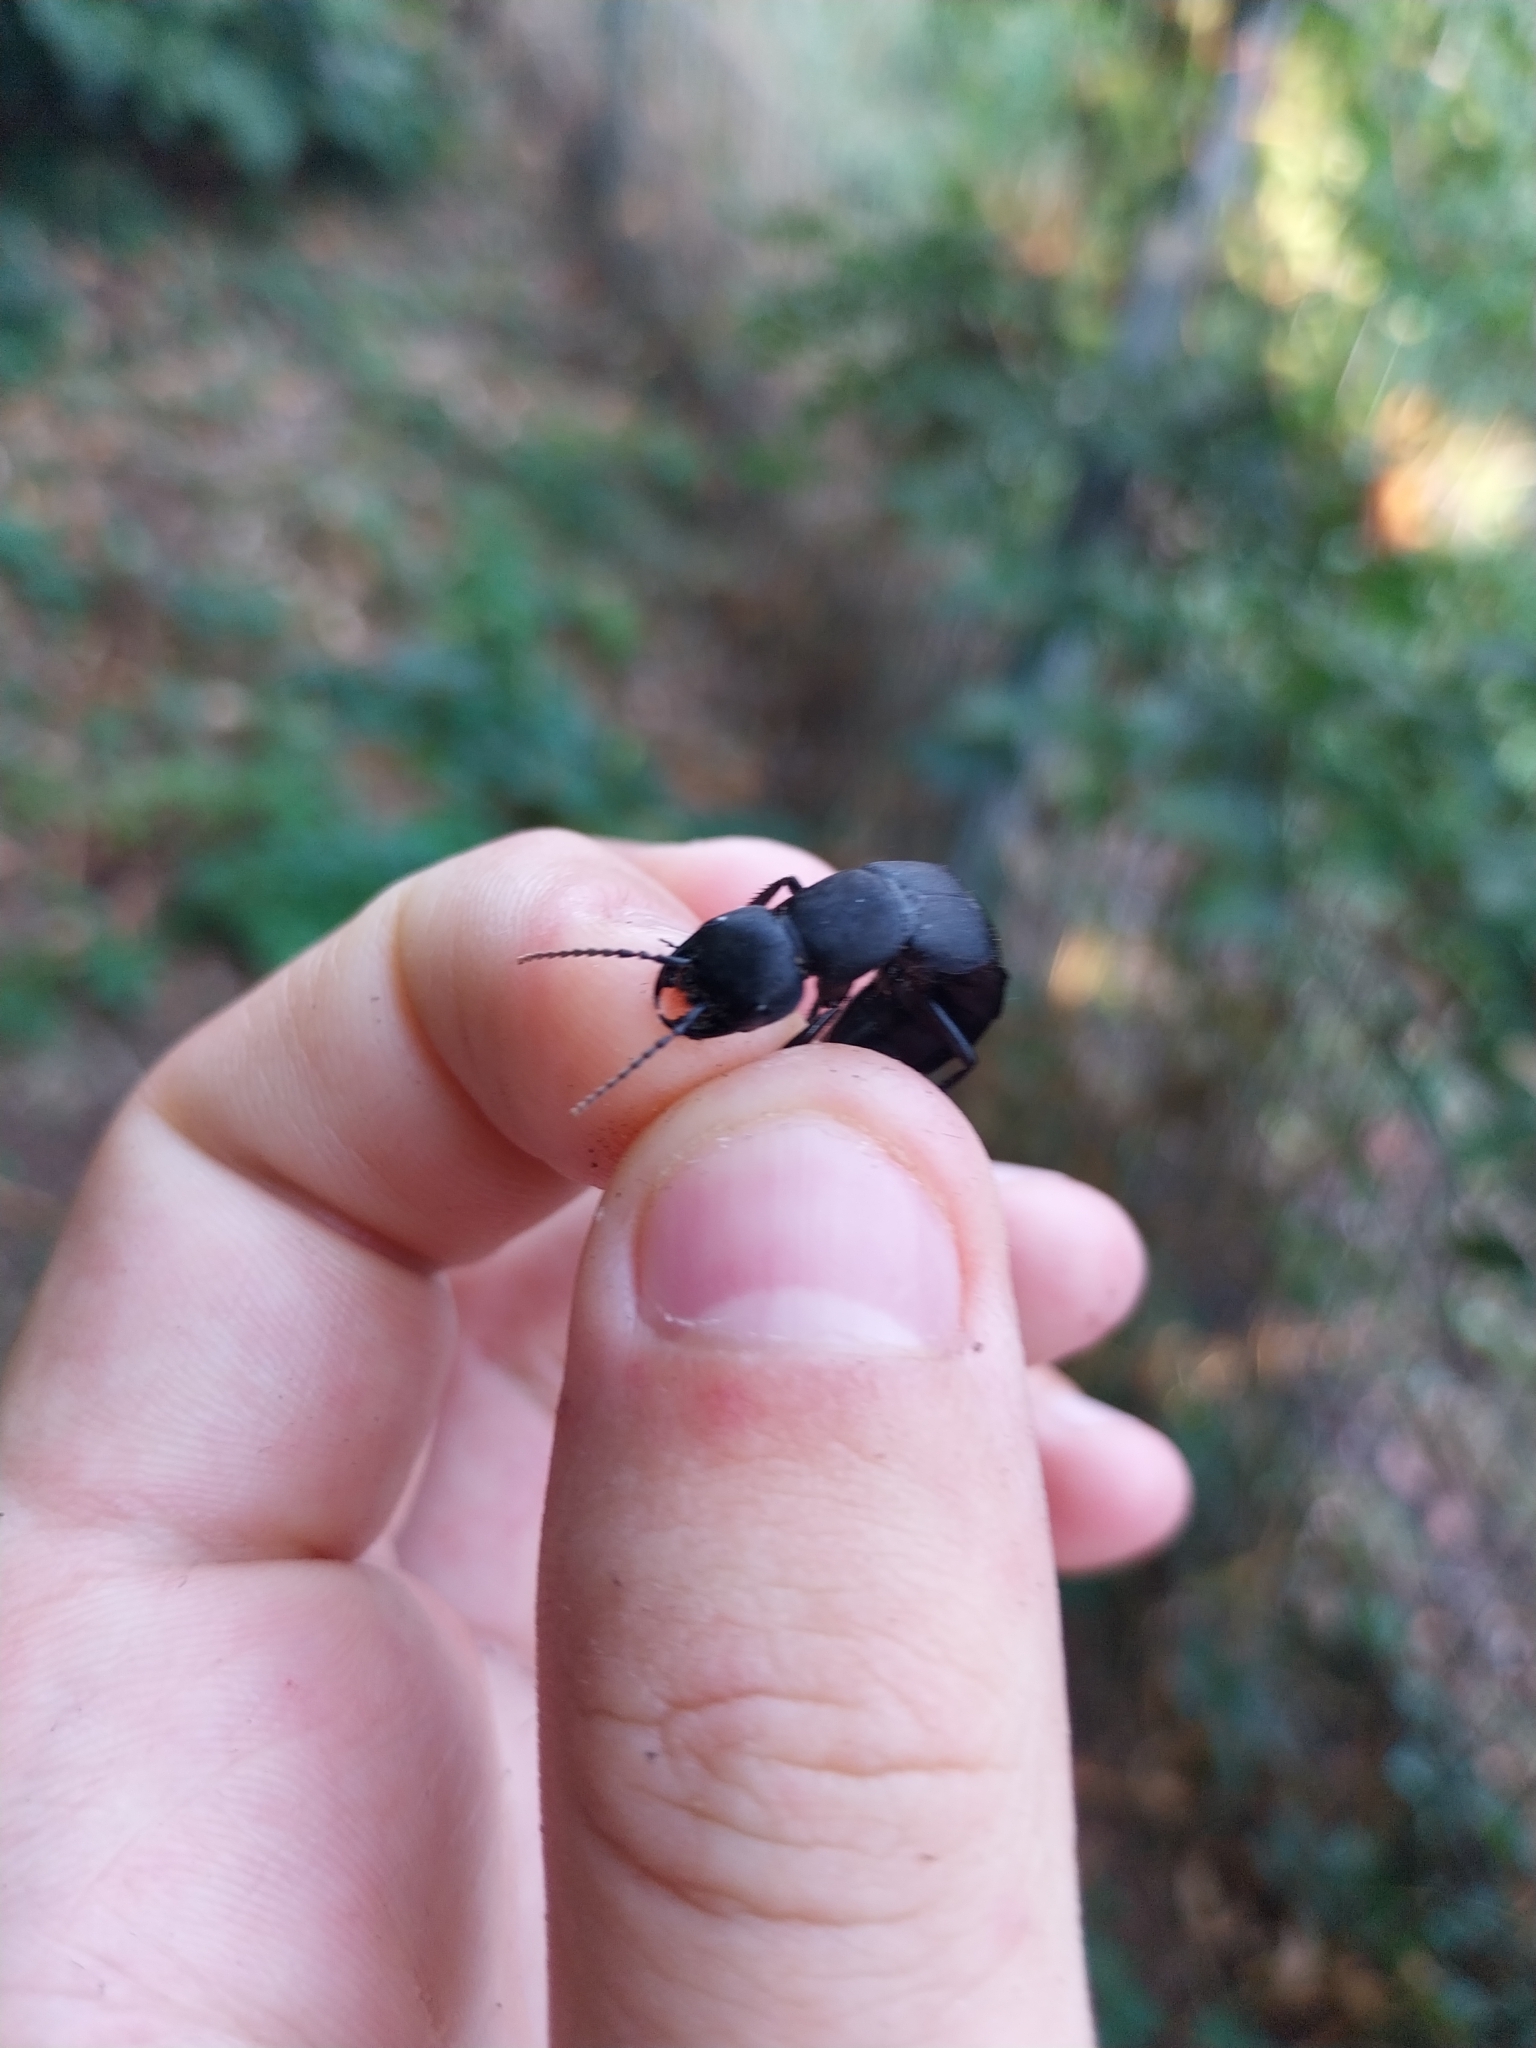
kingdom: Animalia
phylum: Arthropoda
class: Insecta
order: Coleoptera
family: Staphylinidae
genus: Ocypus
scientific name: Ocypus olens
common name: Devil's coach-horse
